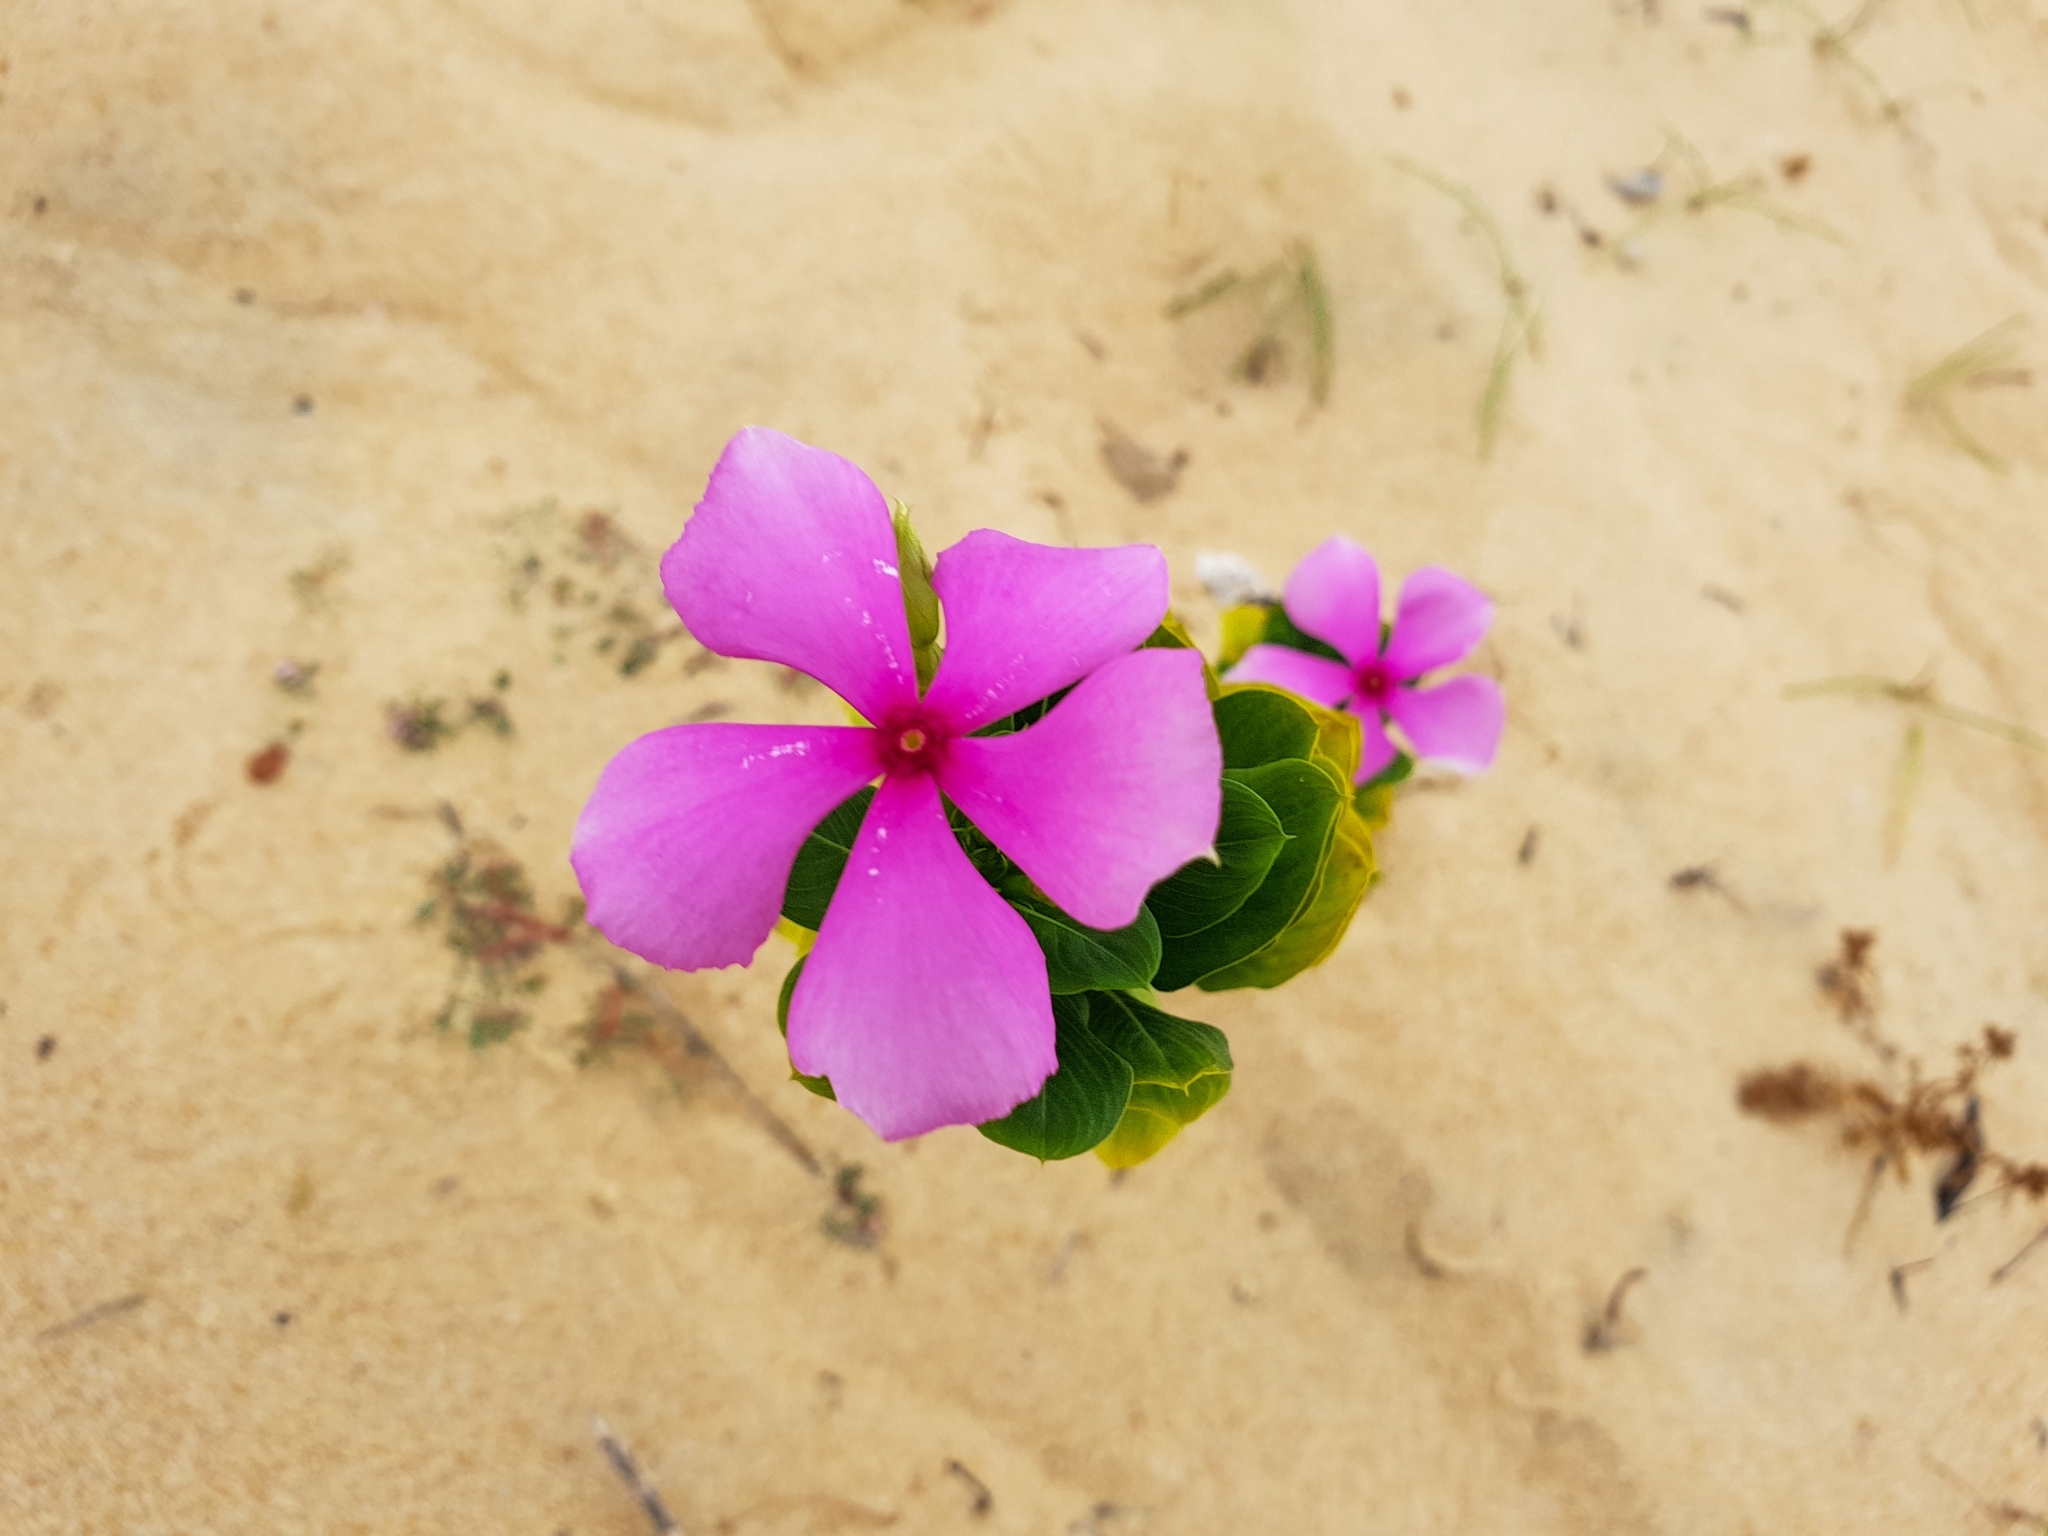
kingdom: Plantae
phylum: Tracheophyta
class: Magnoliopsida
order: Gentianales
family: Apocynaceae
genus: Catharanthus
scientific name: Catharanthus roseus
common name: Madagascar periwinkle
